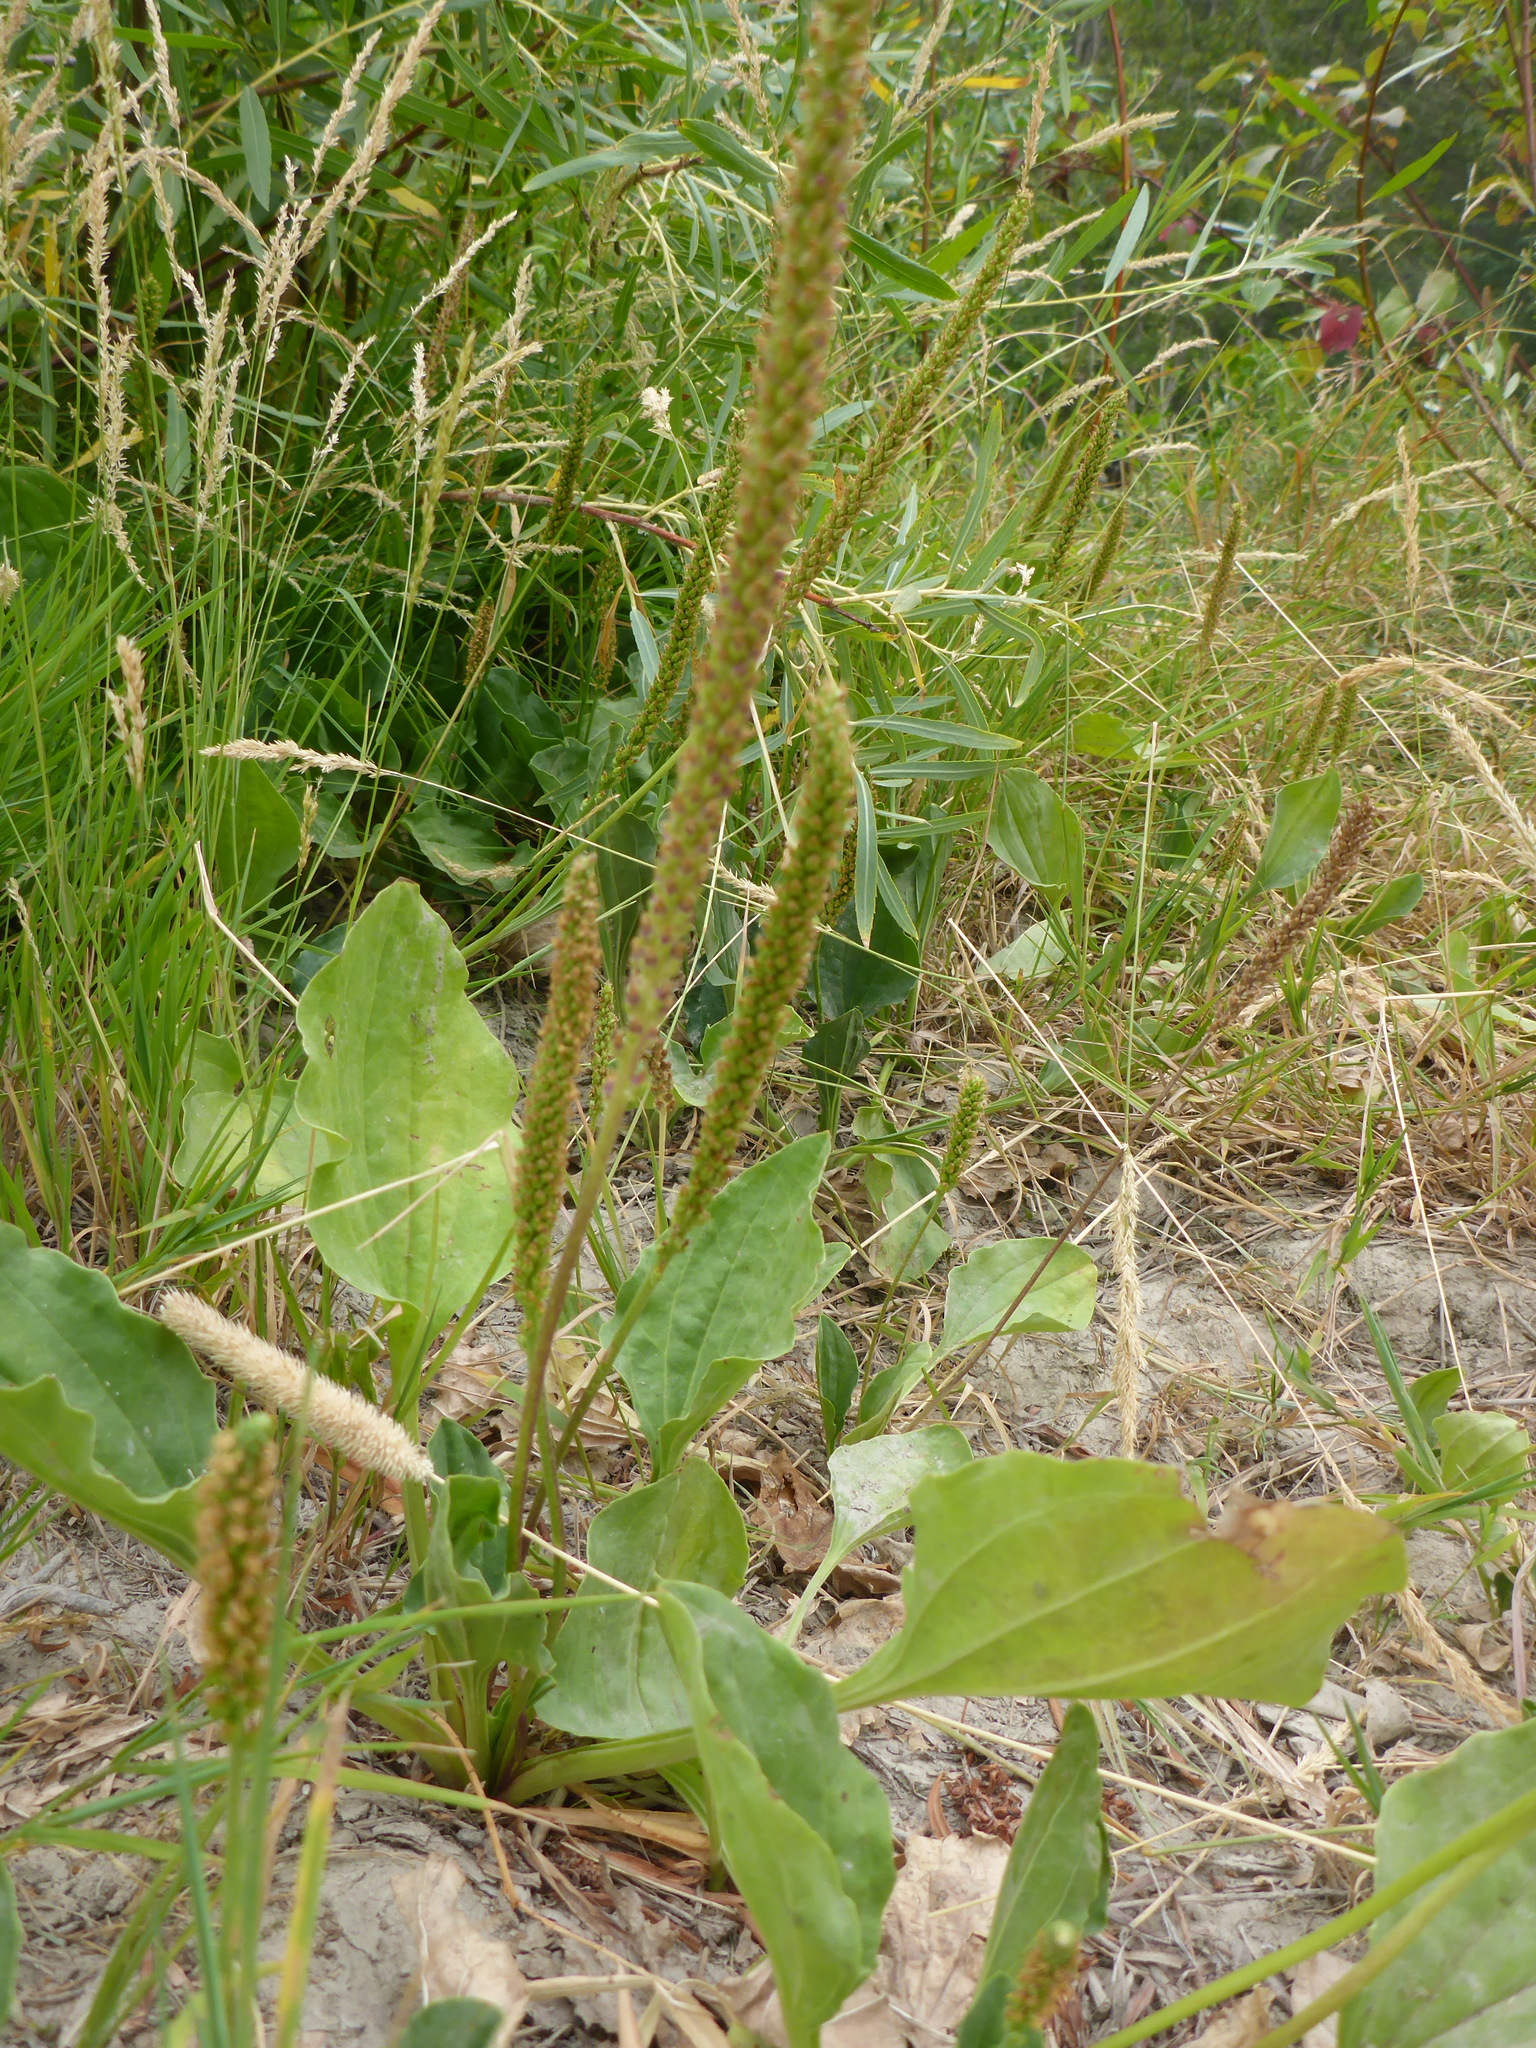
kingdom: Plantae
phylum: Tracheophyta
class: Magnoliopsida
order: Lamiales
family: Plantaginaceae
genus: Plantago
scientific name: Plantago major
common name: Common plantain
